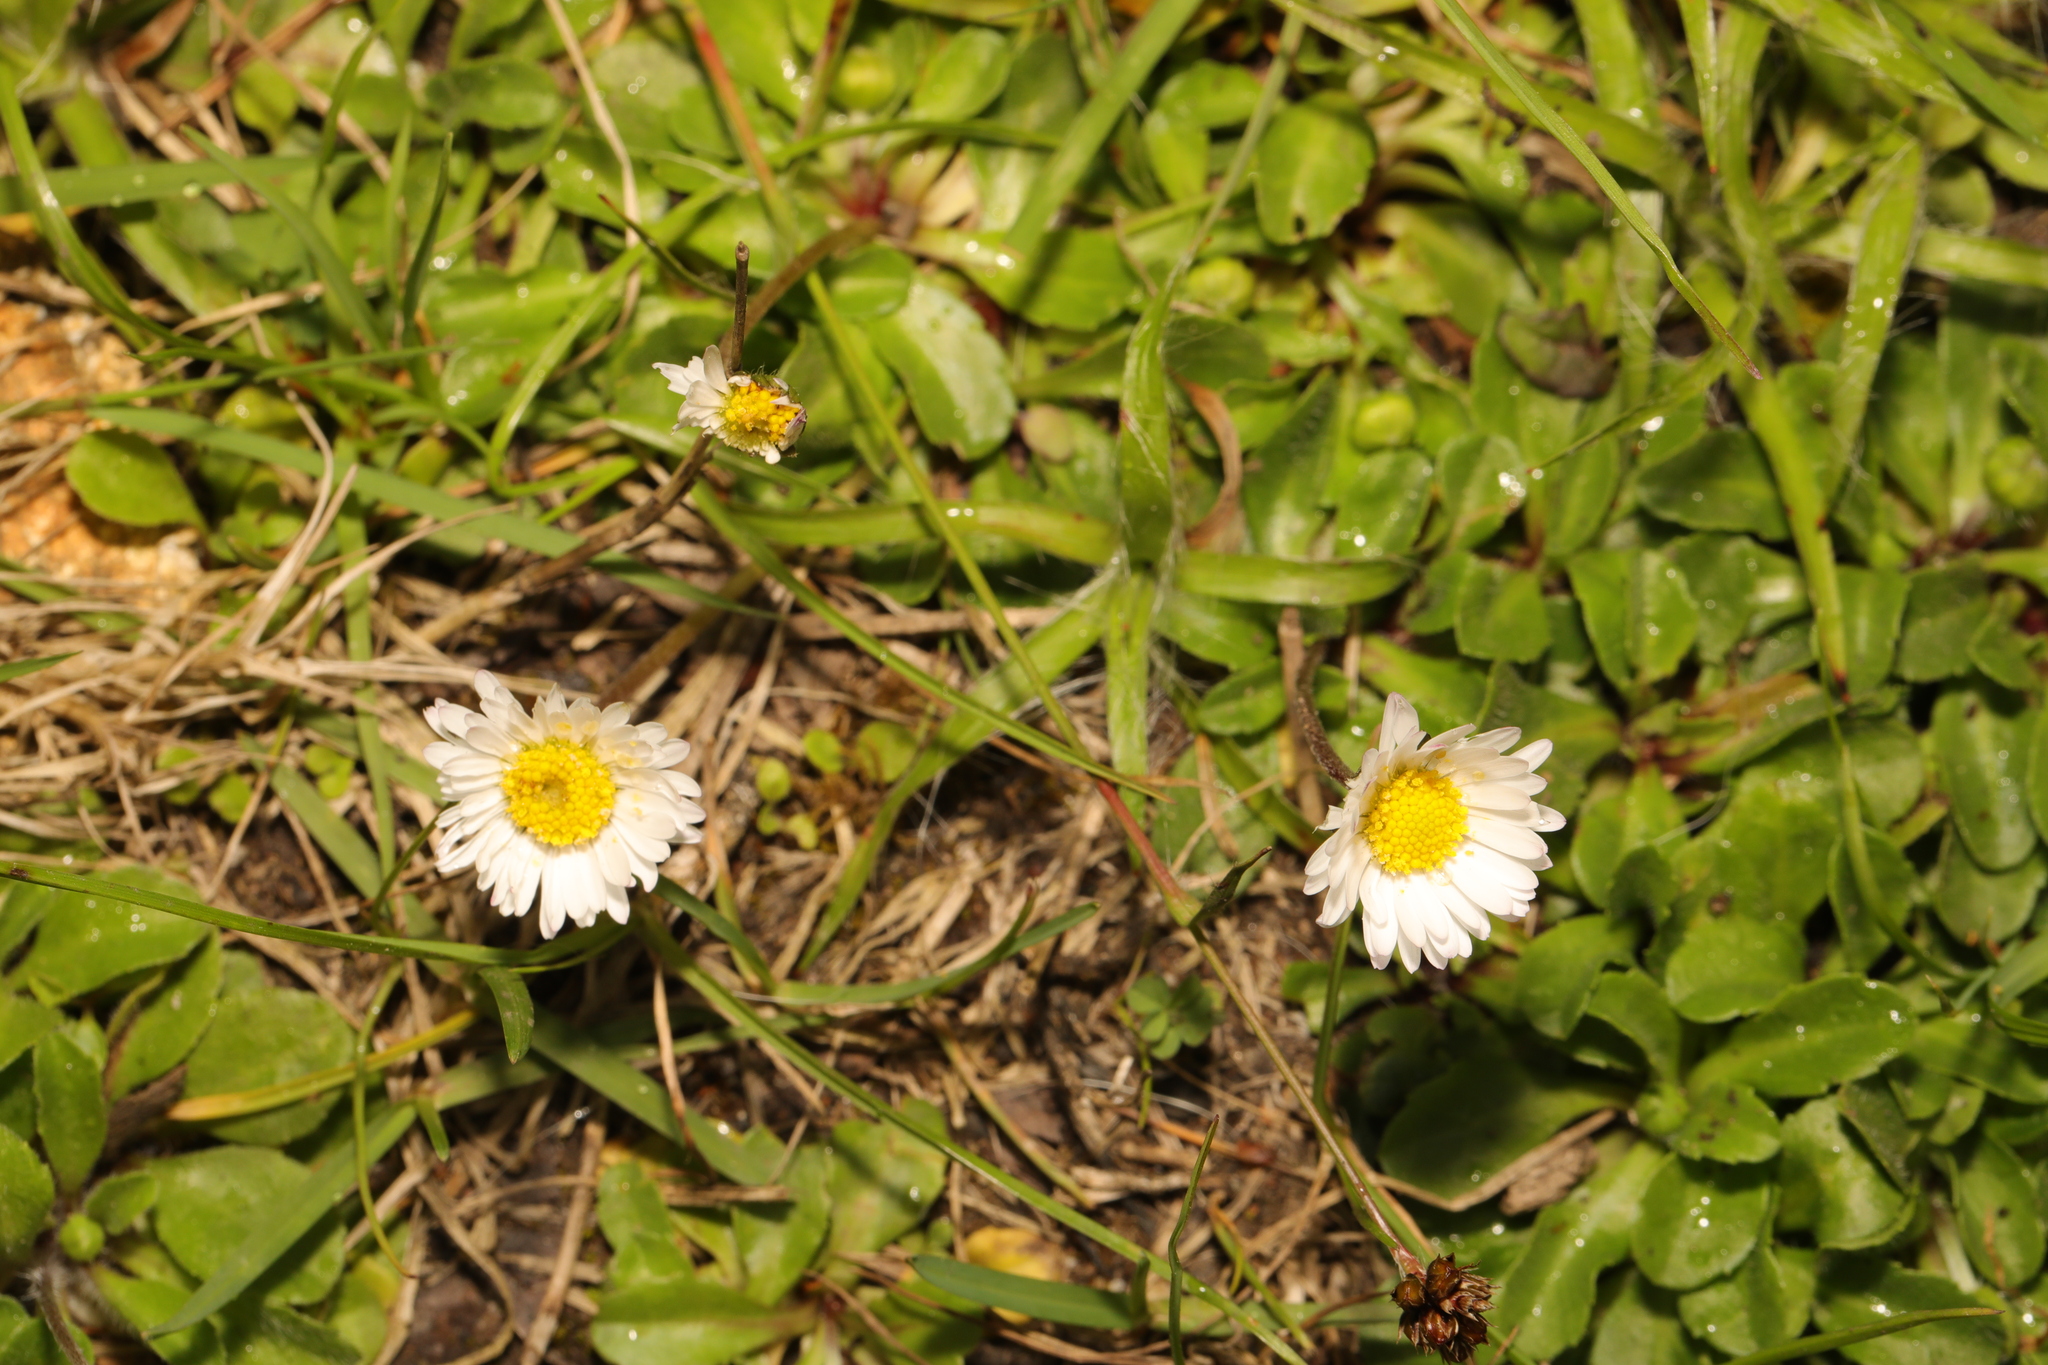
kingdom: Plantae
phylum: Tracheophyta
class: Magnoliopsida
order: Asterales
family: Asteraceae
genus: Bellis
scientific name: Bellis perennis
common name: Lawndaisy
